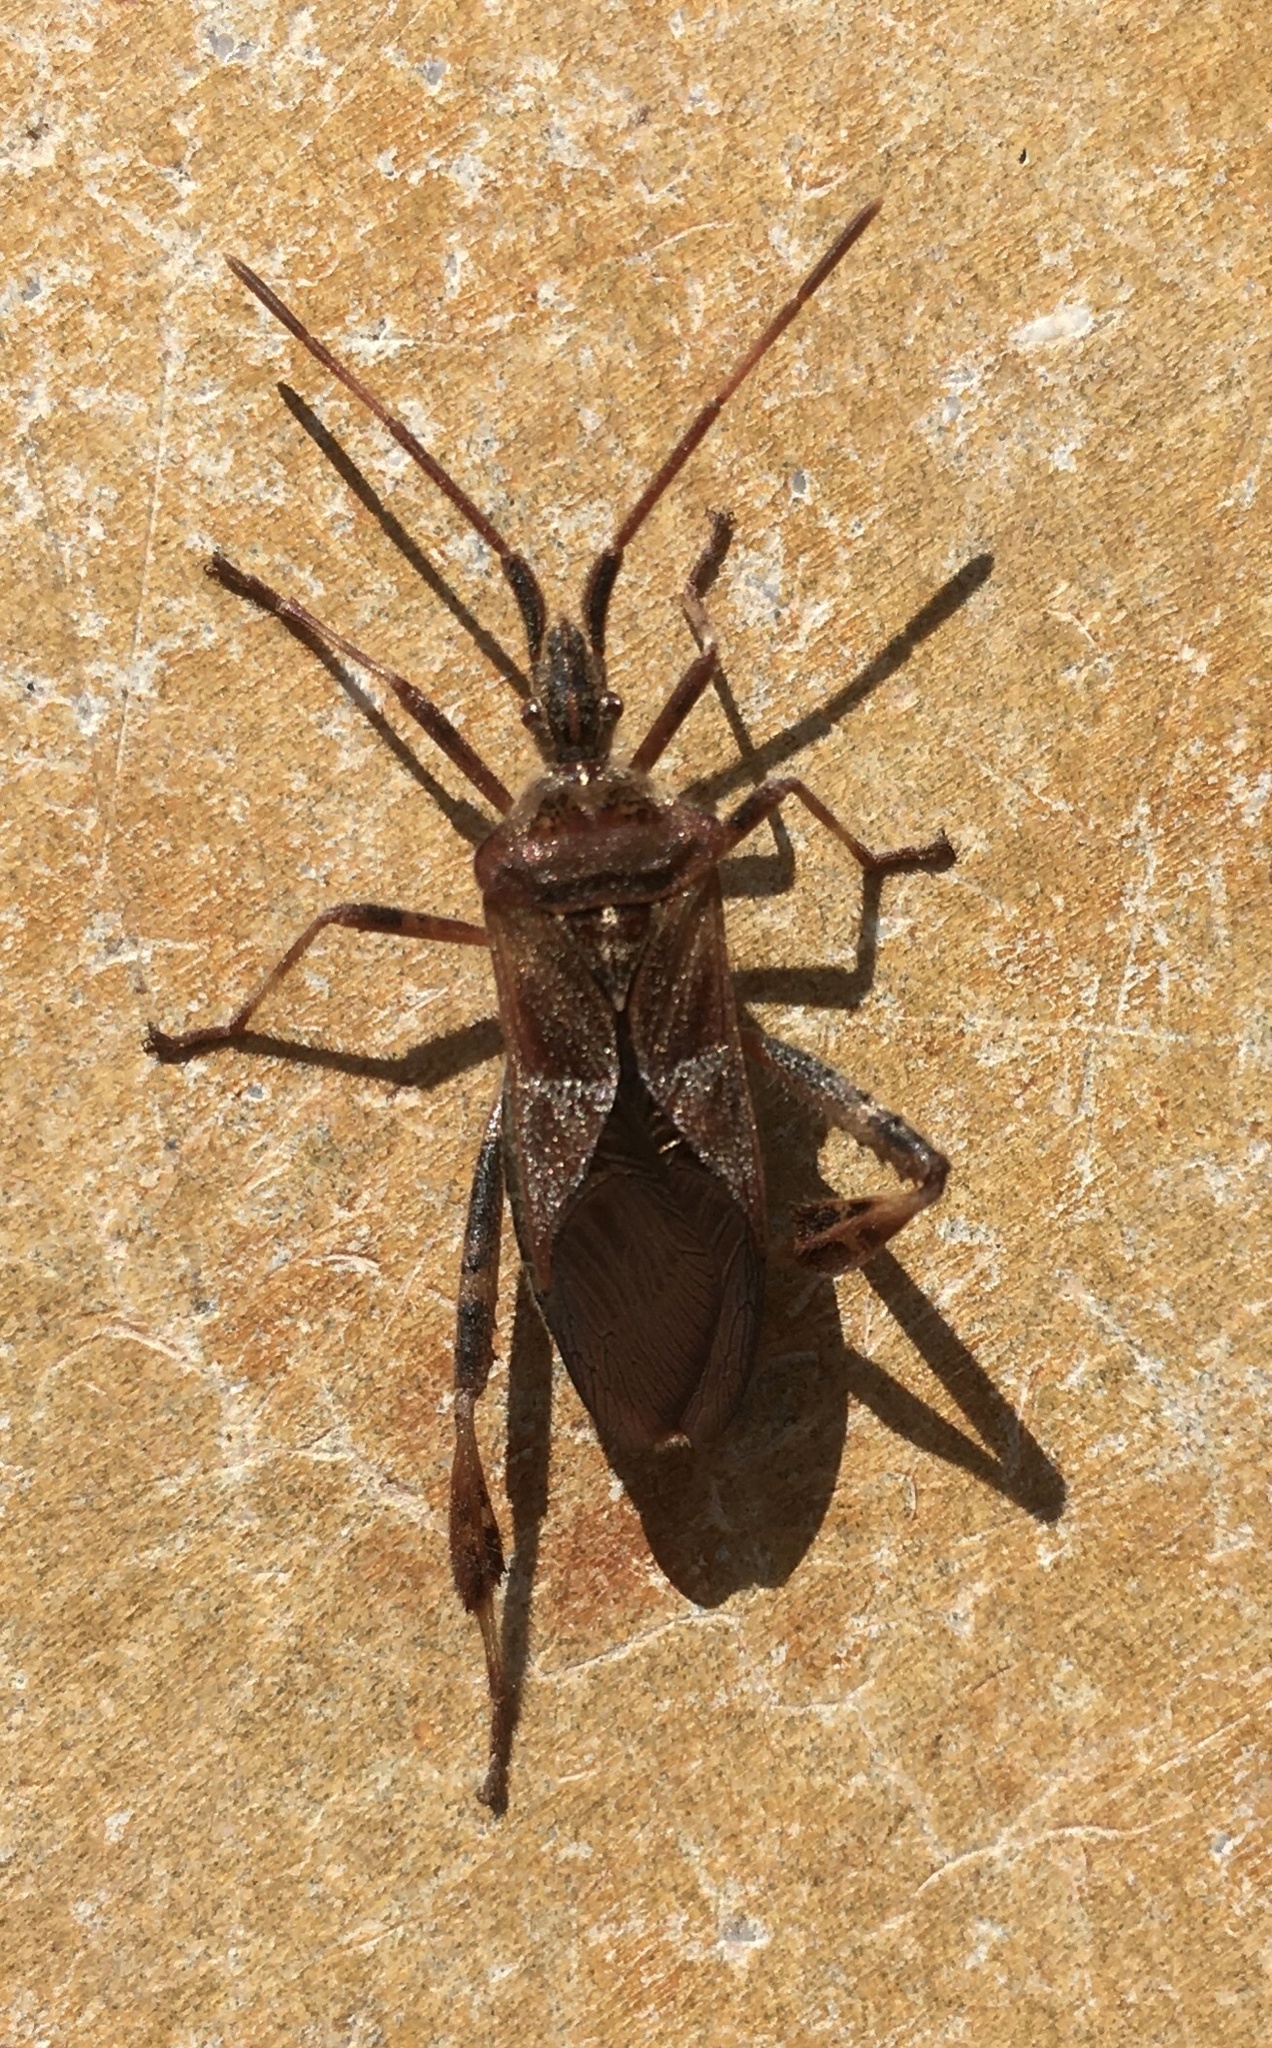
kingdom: Animalia
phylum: Arthropoda
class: Insecta
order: Hemiptera
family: Coreidae
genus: Leptoglossus
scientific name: Leptoglossus occidentalis
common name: Western conifer-seed bug
